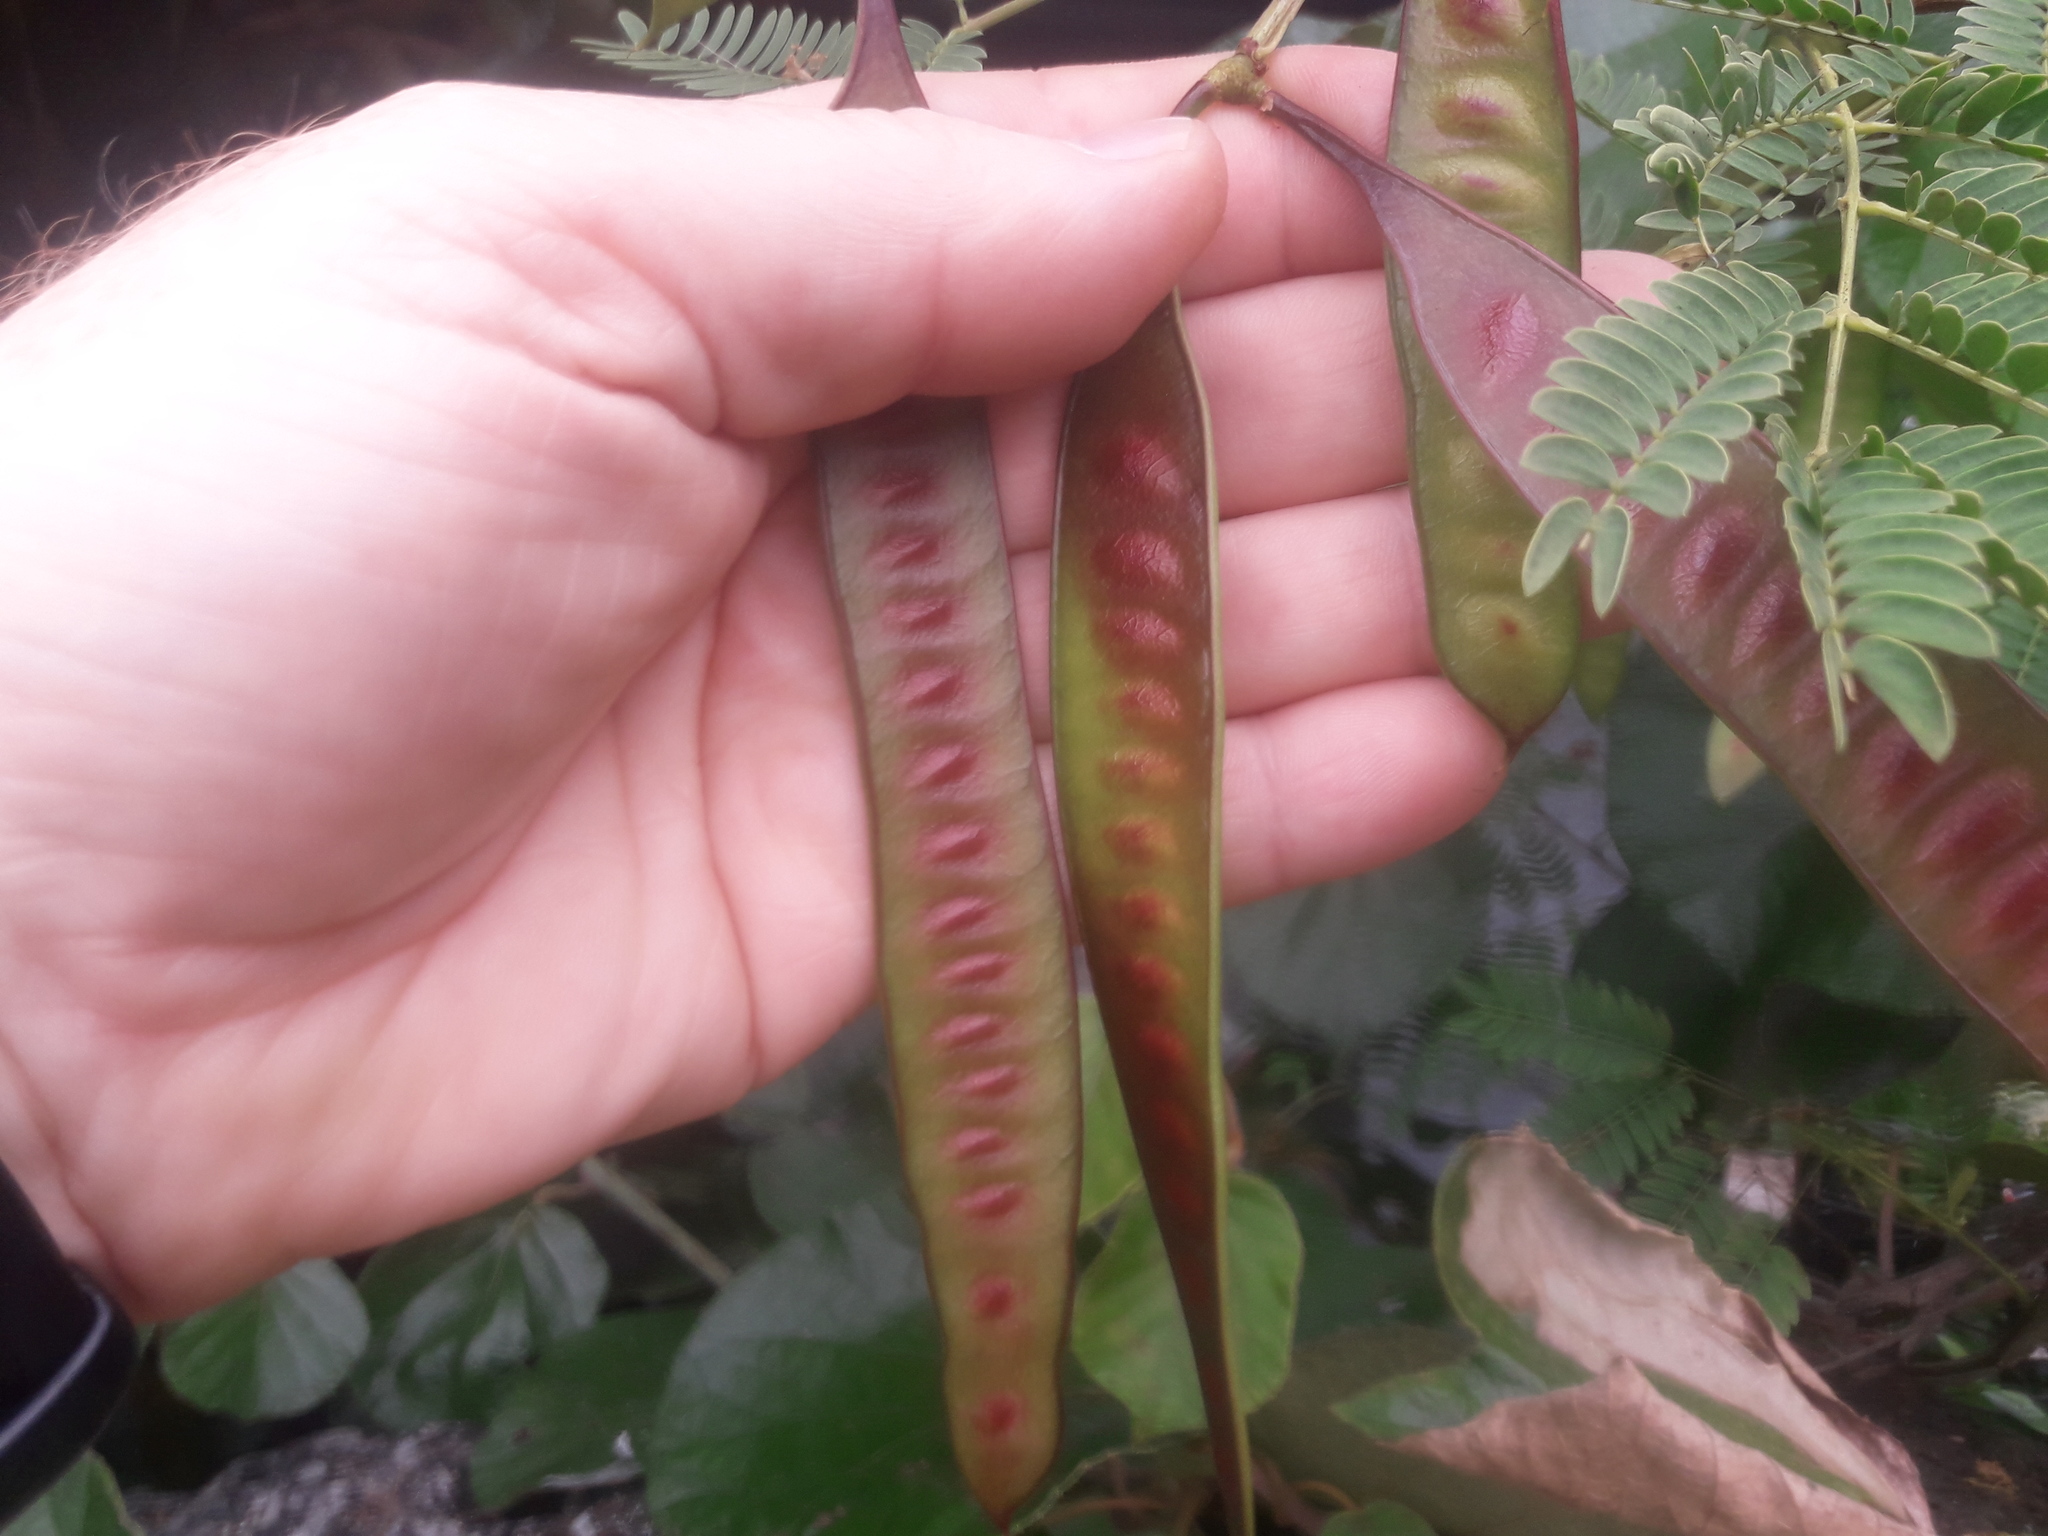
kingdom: Plantae
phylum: Tracheophyta
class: Magnoliopsida
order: Fabales
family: Fabaceae
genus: Leucaena
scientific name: Leucaena leucocephala
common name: White leadtree
